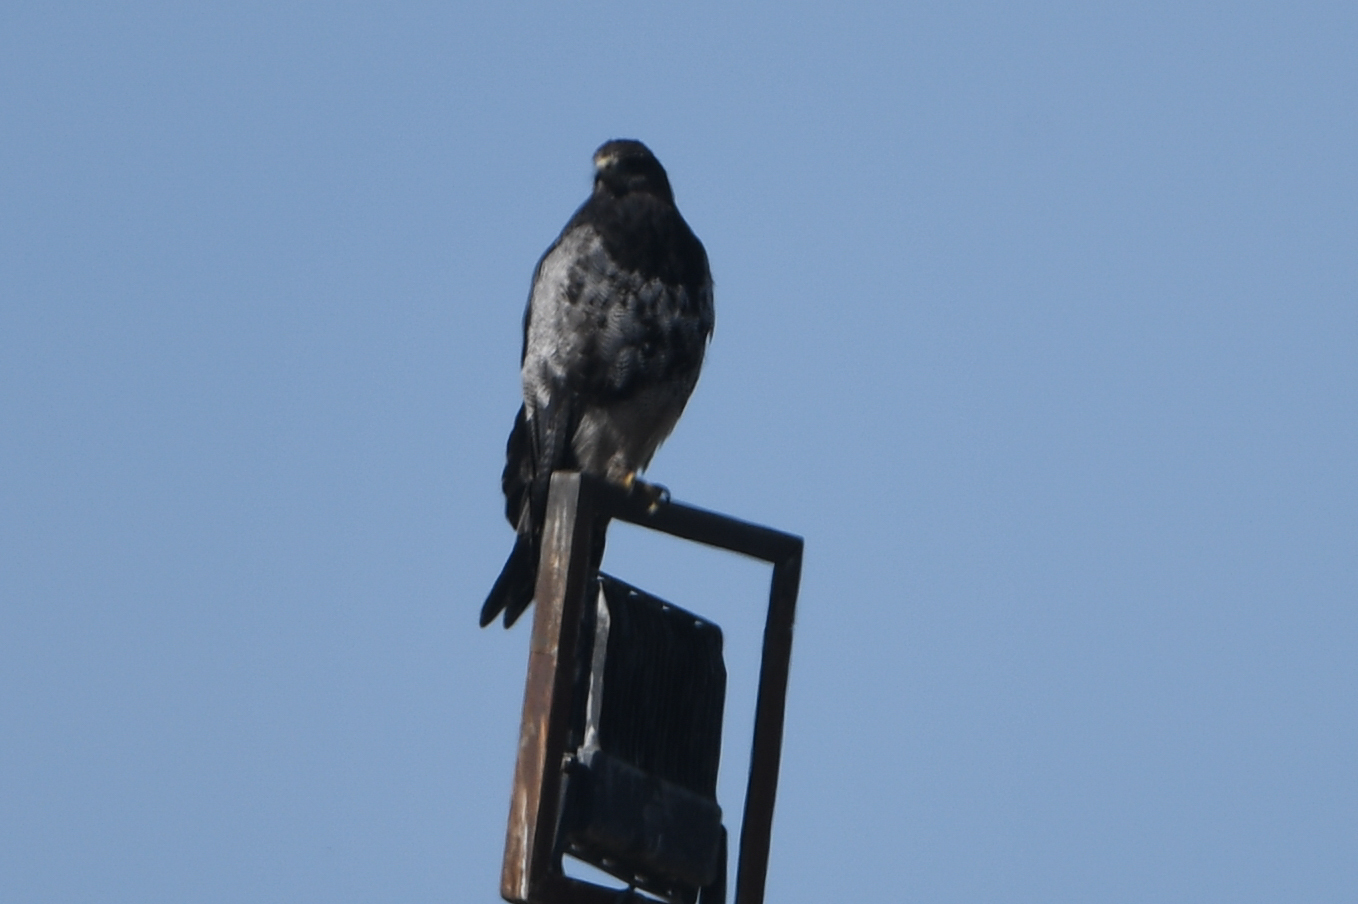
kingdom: Animalia
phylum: Chordata
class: Aves
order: Accipitriformes
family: Accipitridae
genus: Geranoaetus
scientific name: Geranoaetus melanoleucus
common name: Black-chested buzzard-eagle
